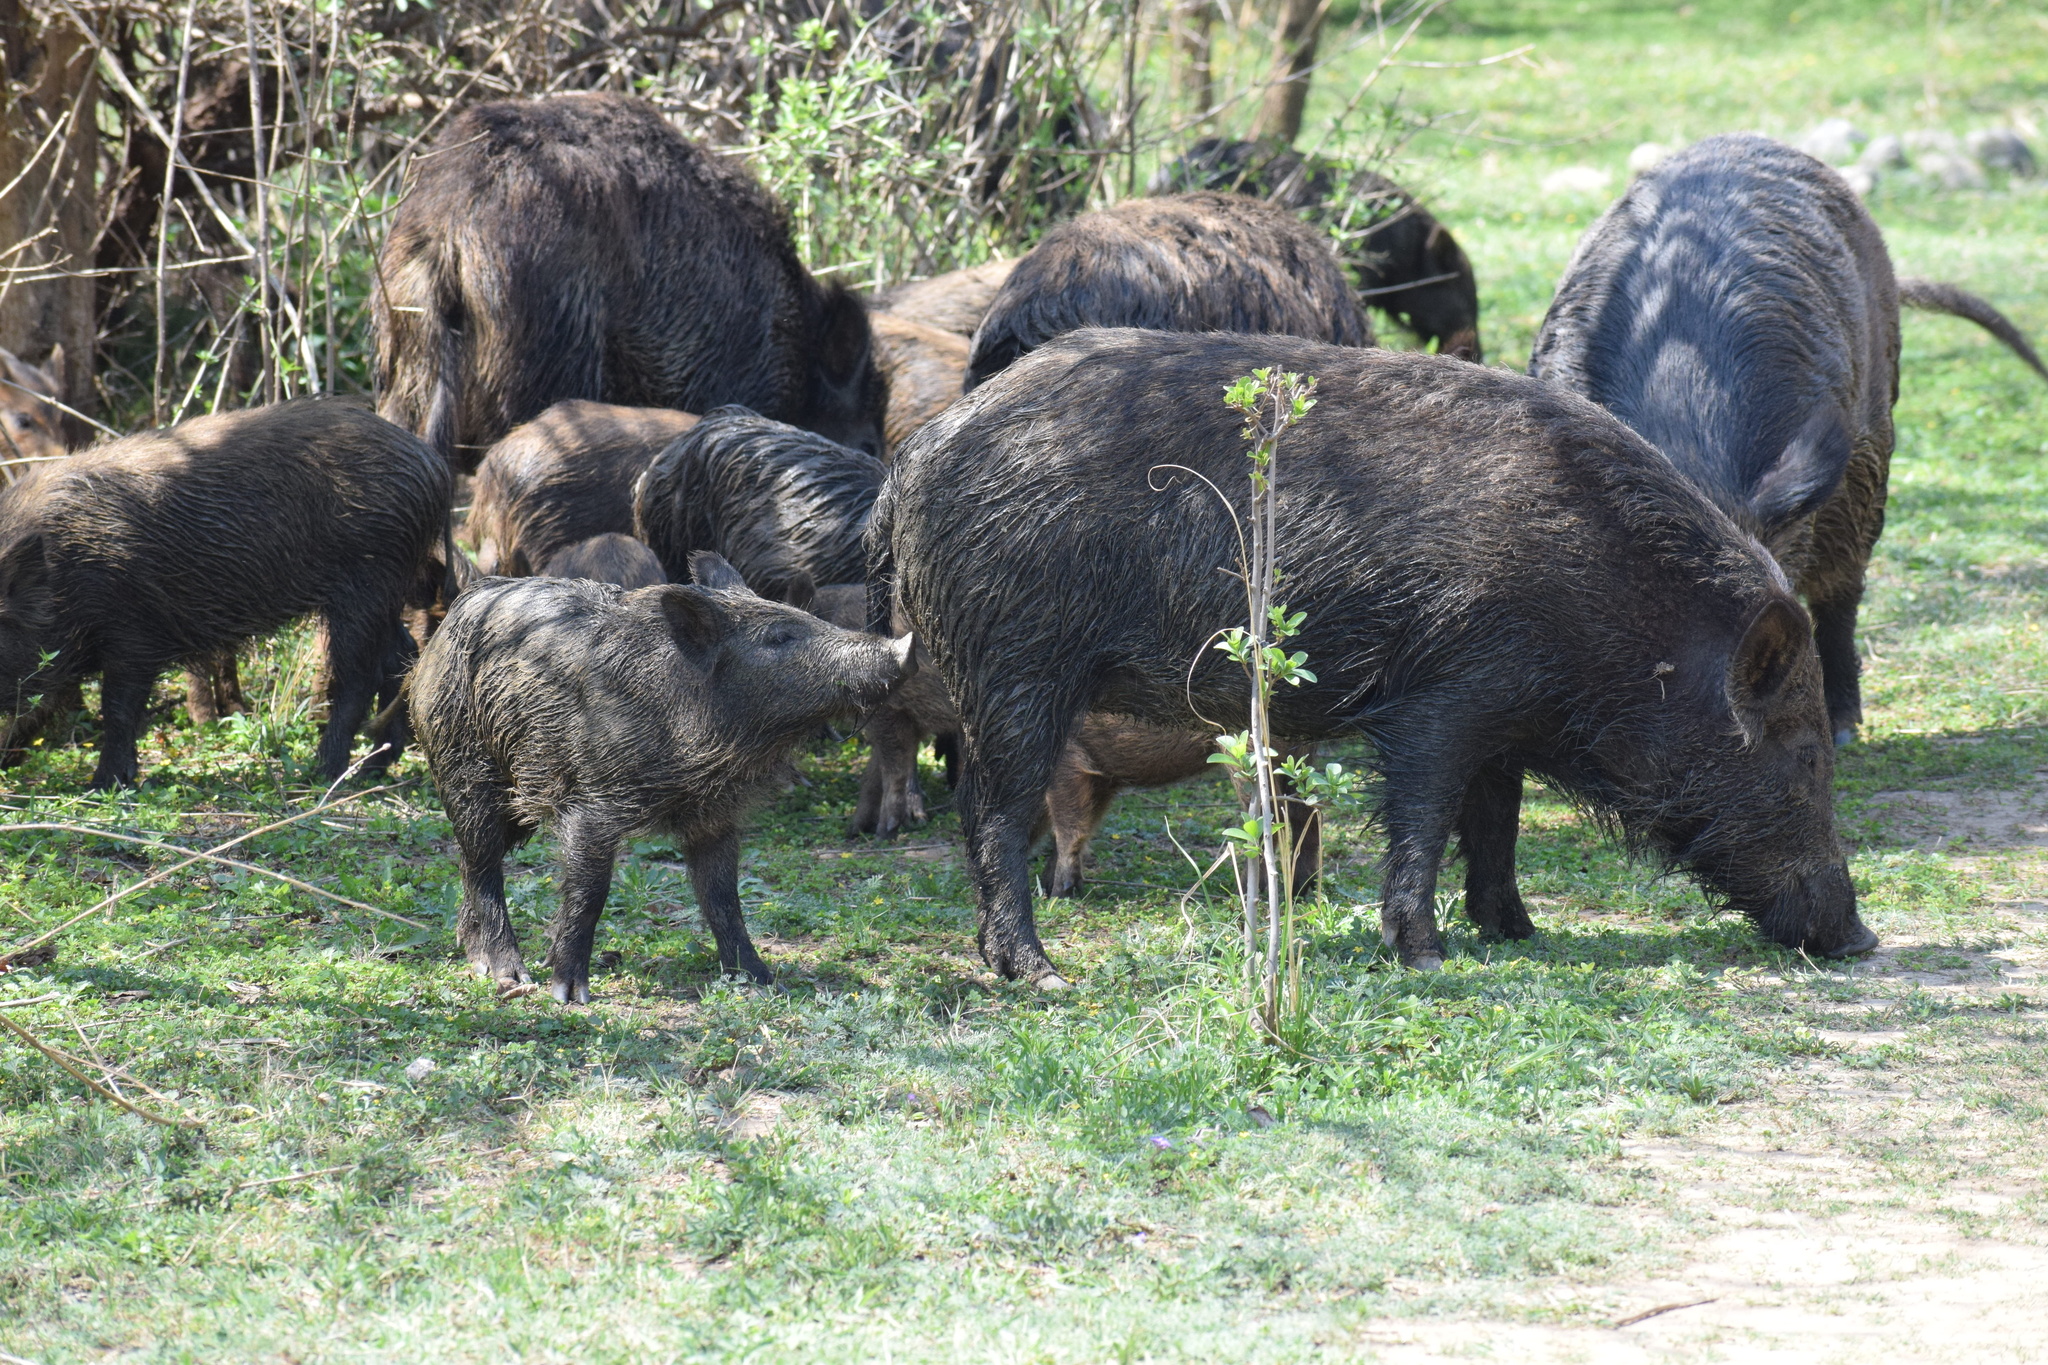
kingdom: Animalia
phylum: Chordata
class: Mammalia
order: Artiodactyla
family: Suidae
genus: Sus
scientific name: Sus scrofa
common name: Wild boar
